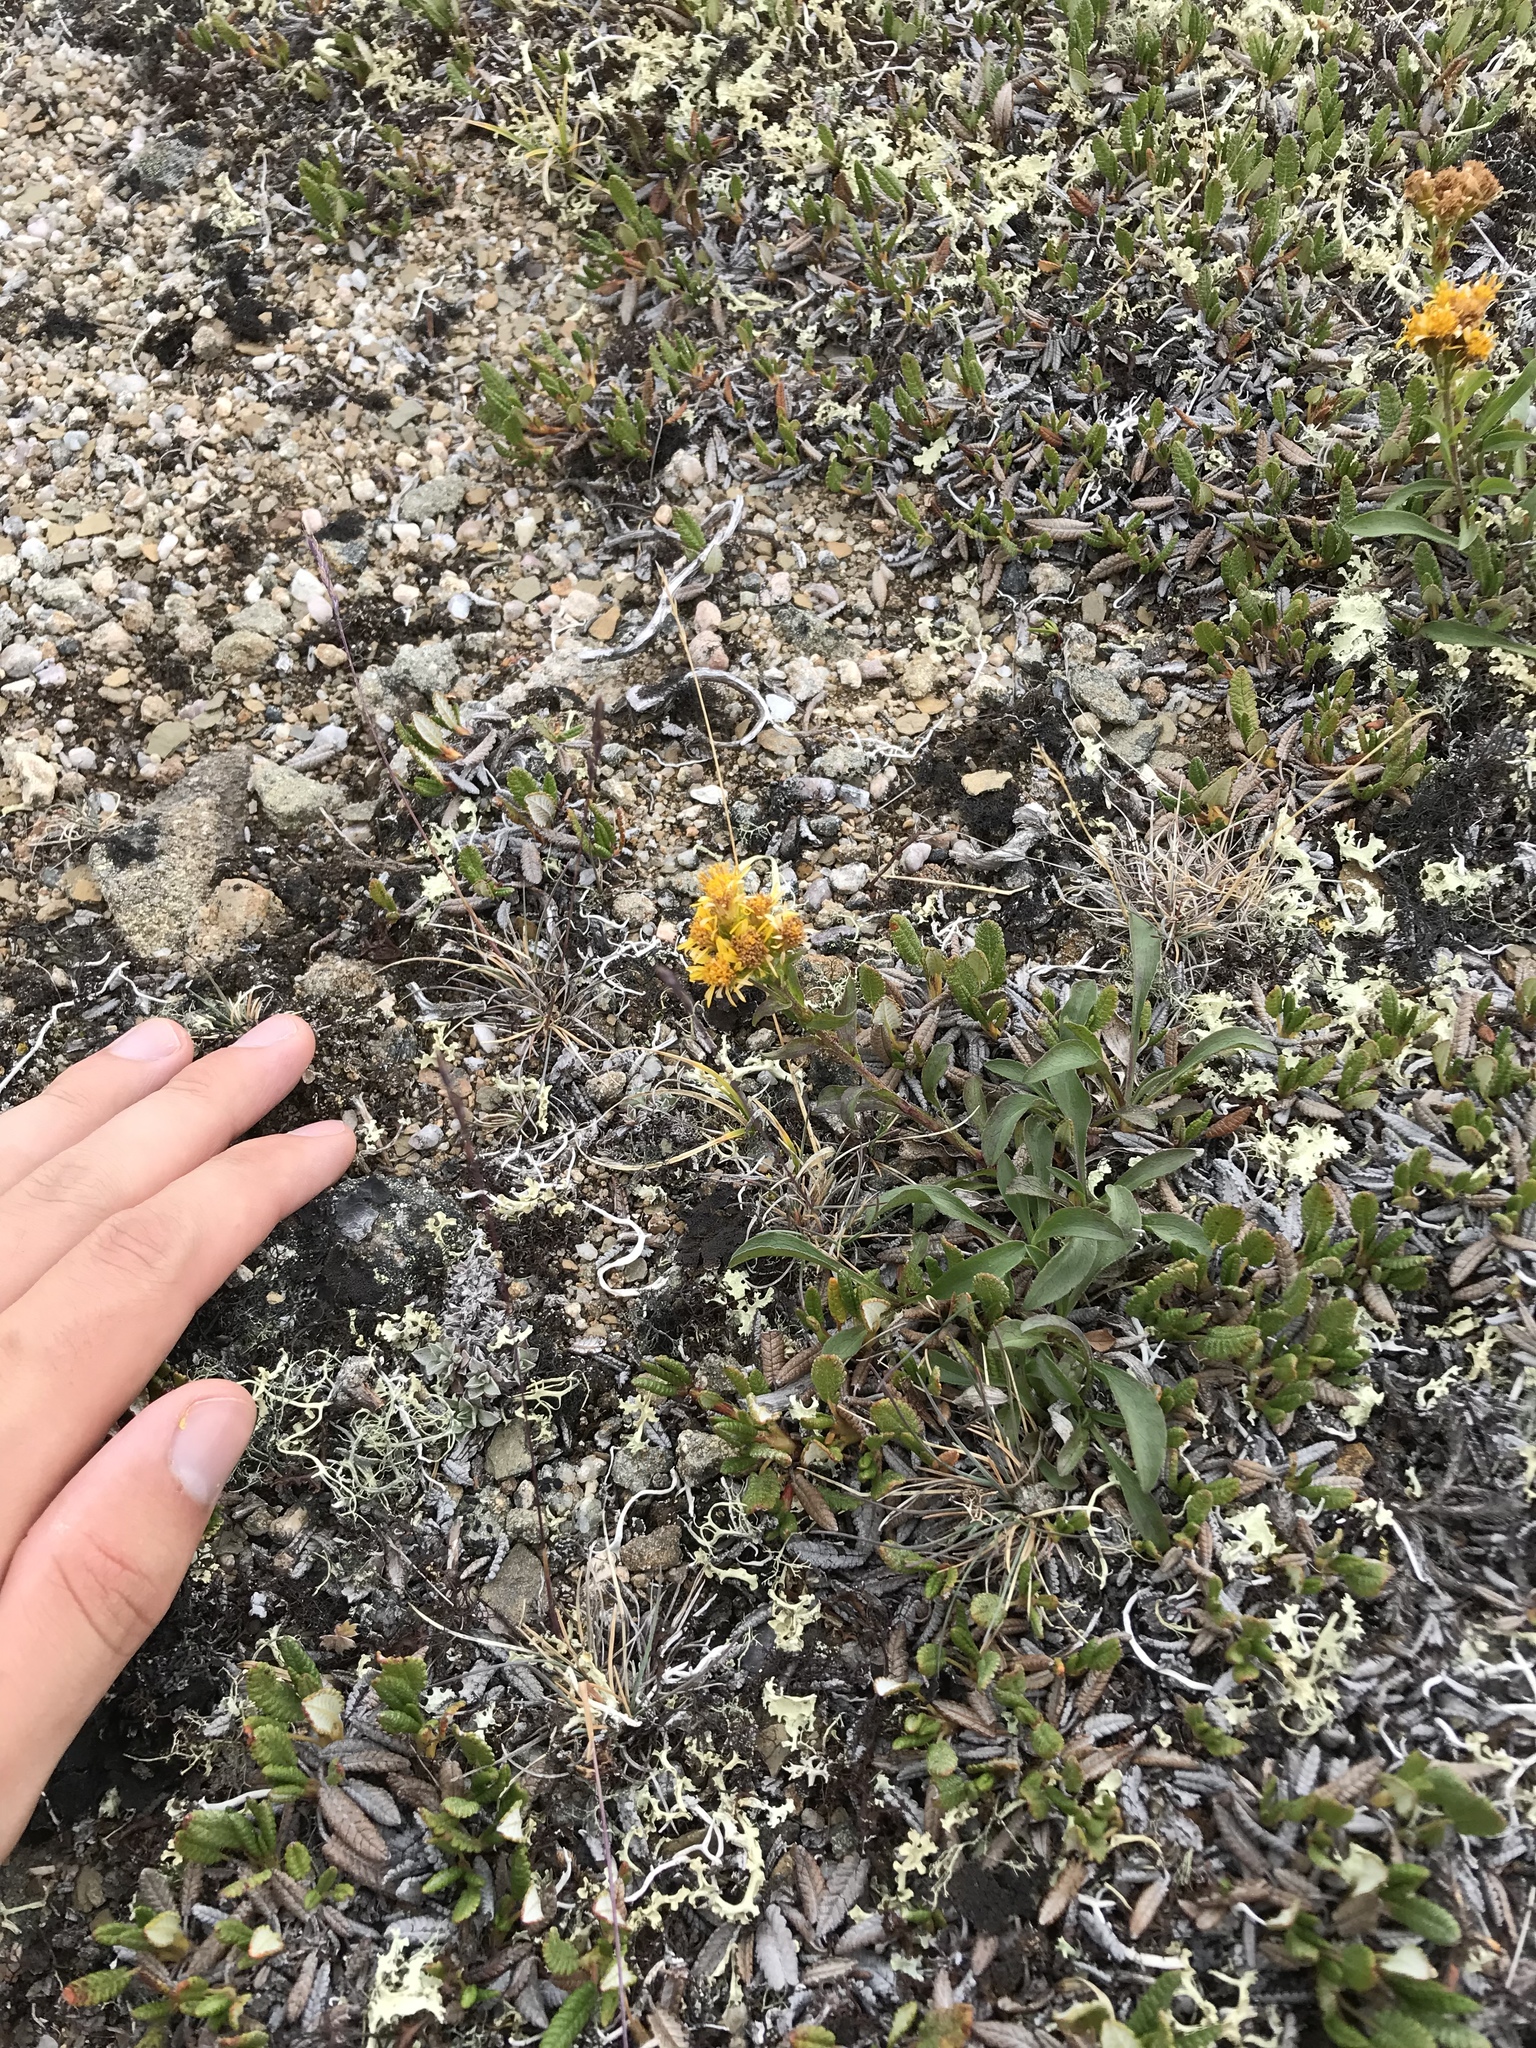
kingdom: Plantae
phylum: Tracheophyta
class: Magnoliopsida
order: Asterales
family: Asteraceae
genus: Solidago
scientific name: Solidago multiradiata
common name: Northern goldenrod
